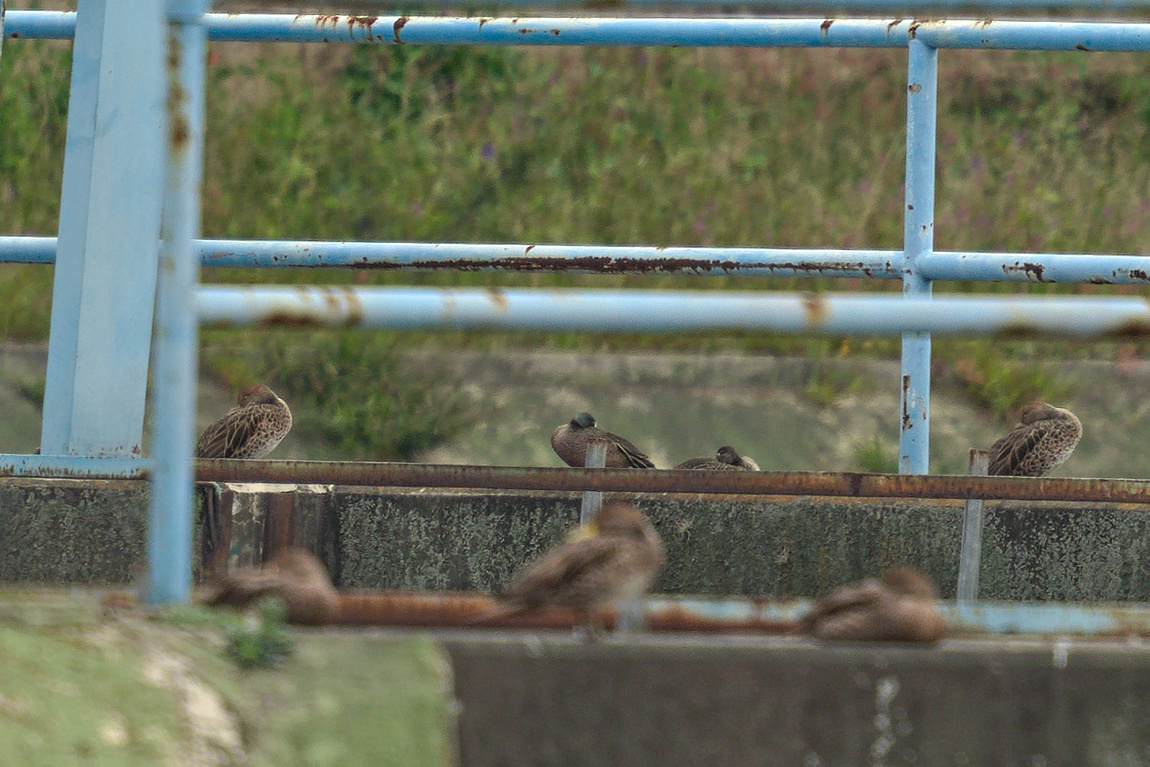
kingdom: Animalia
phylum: Chordata
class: Aves
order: Anseriformes
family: Anatidae
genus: Spatula
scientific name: Spatula discors
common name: Blue-winged teal
